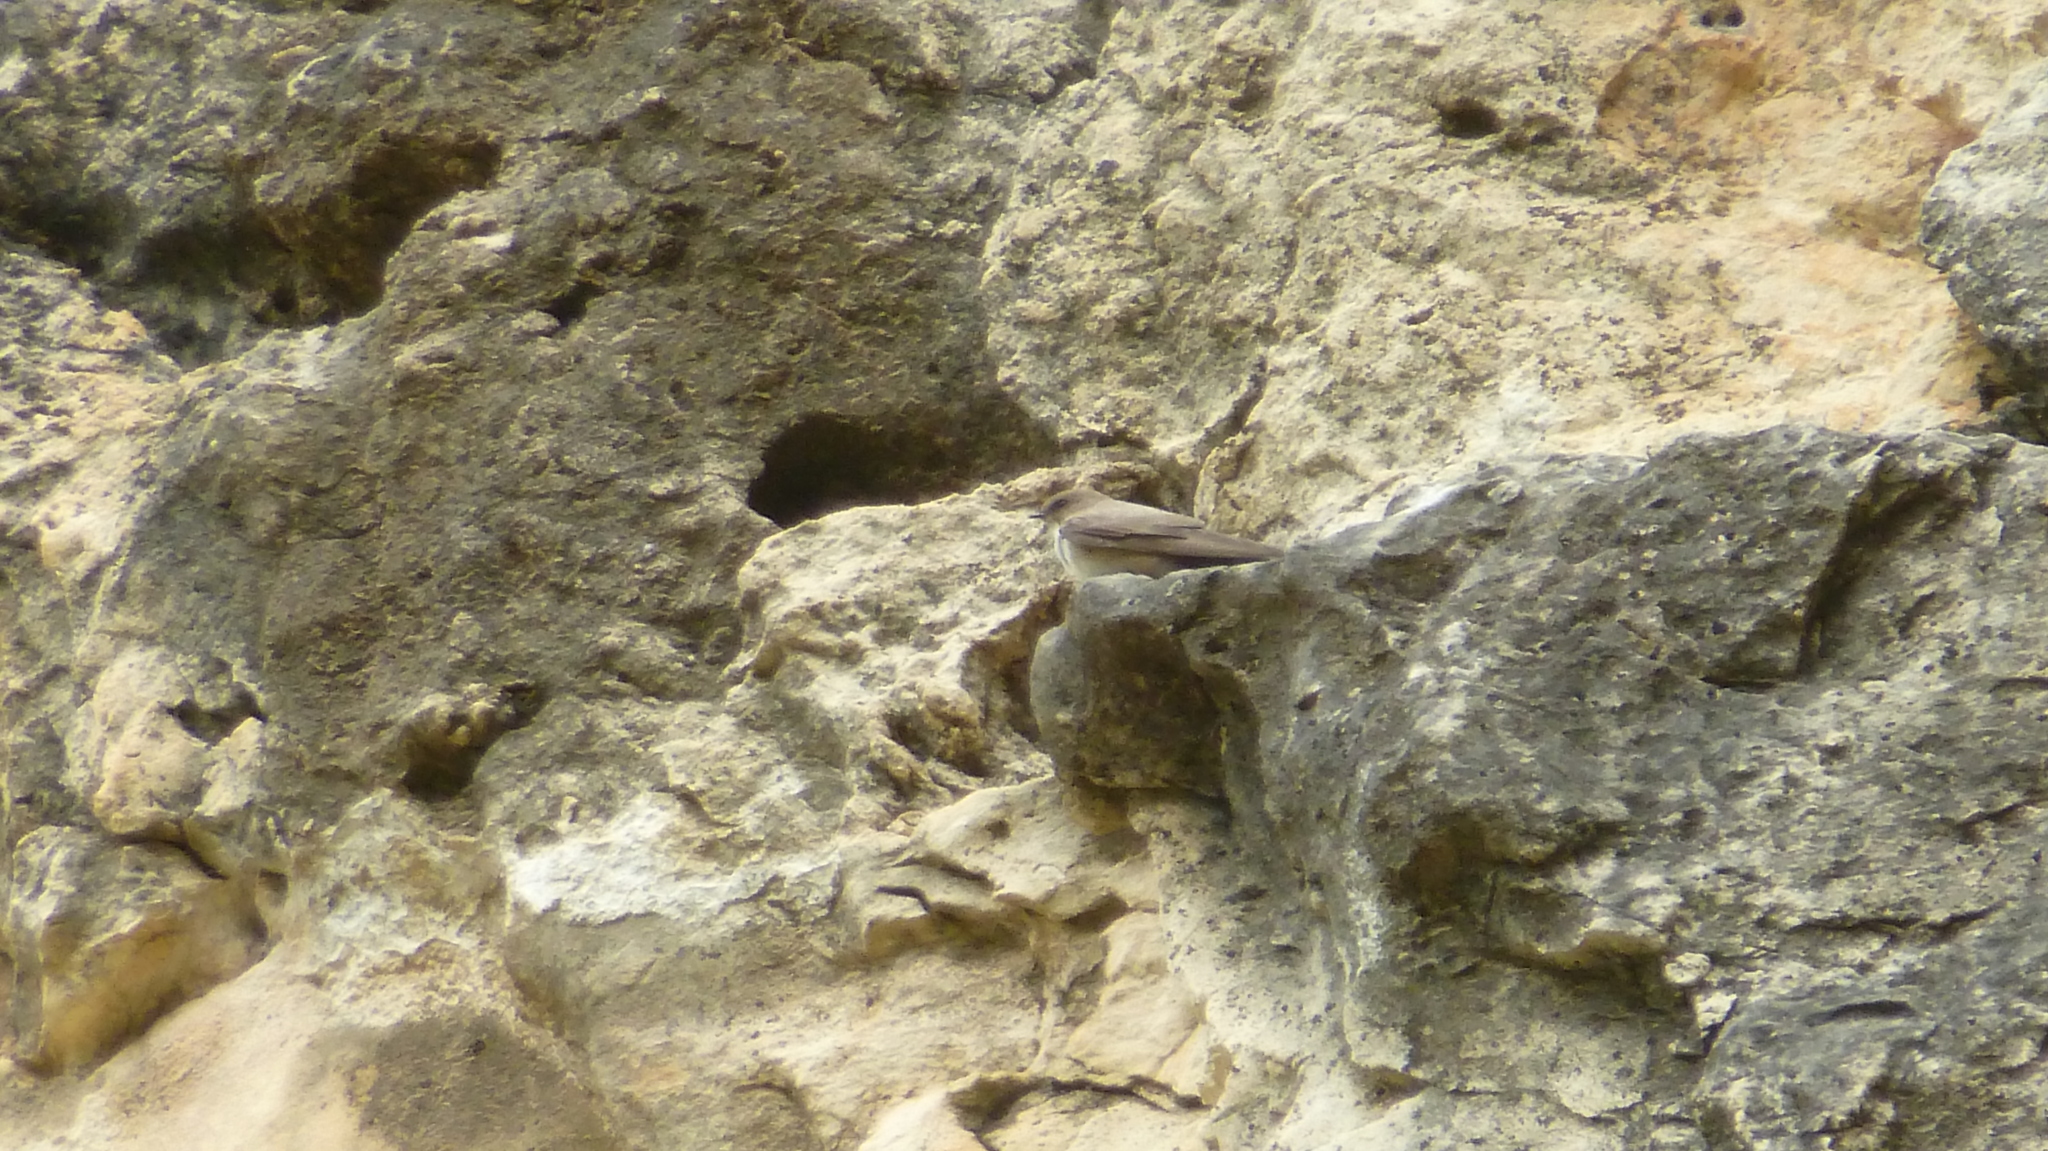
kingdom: Animalia
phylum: Chordata
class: Aves
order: Passeriformes
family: Hirundinidae
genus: Ptyonoprogne
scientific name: Ptyonoprogne rupestris
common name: Eurasian crag martin
